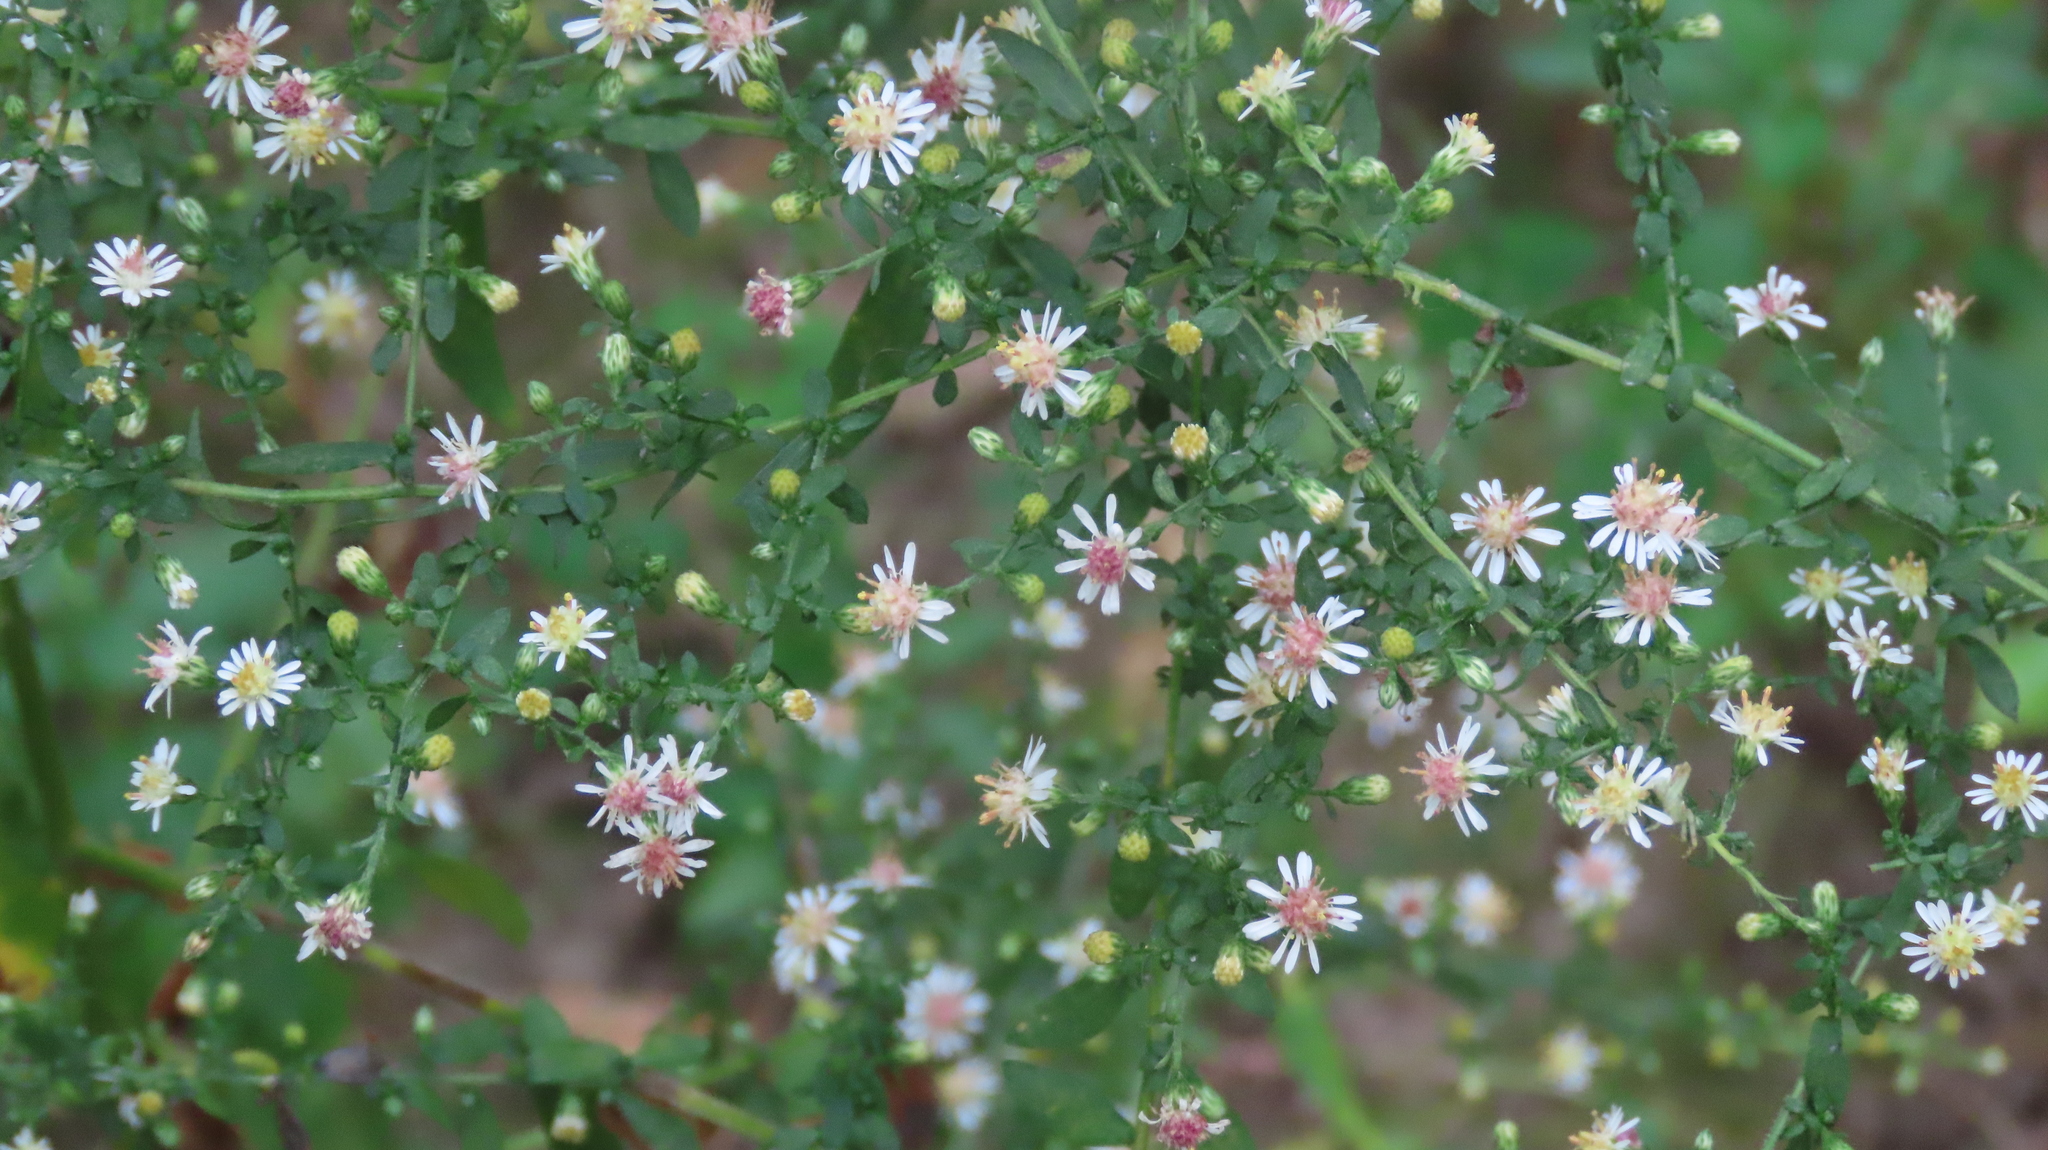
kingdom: Plantae
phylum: Tracheophyta
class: Magnoliopsida
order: Asterales
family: Asteraceae
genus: Symphyotrichum
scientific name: Symphyotrichum lateriflorum
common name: Calico aster
